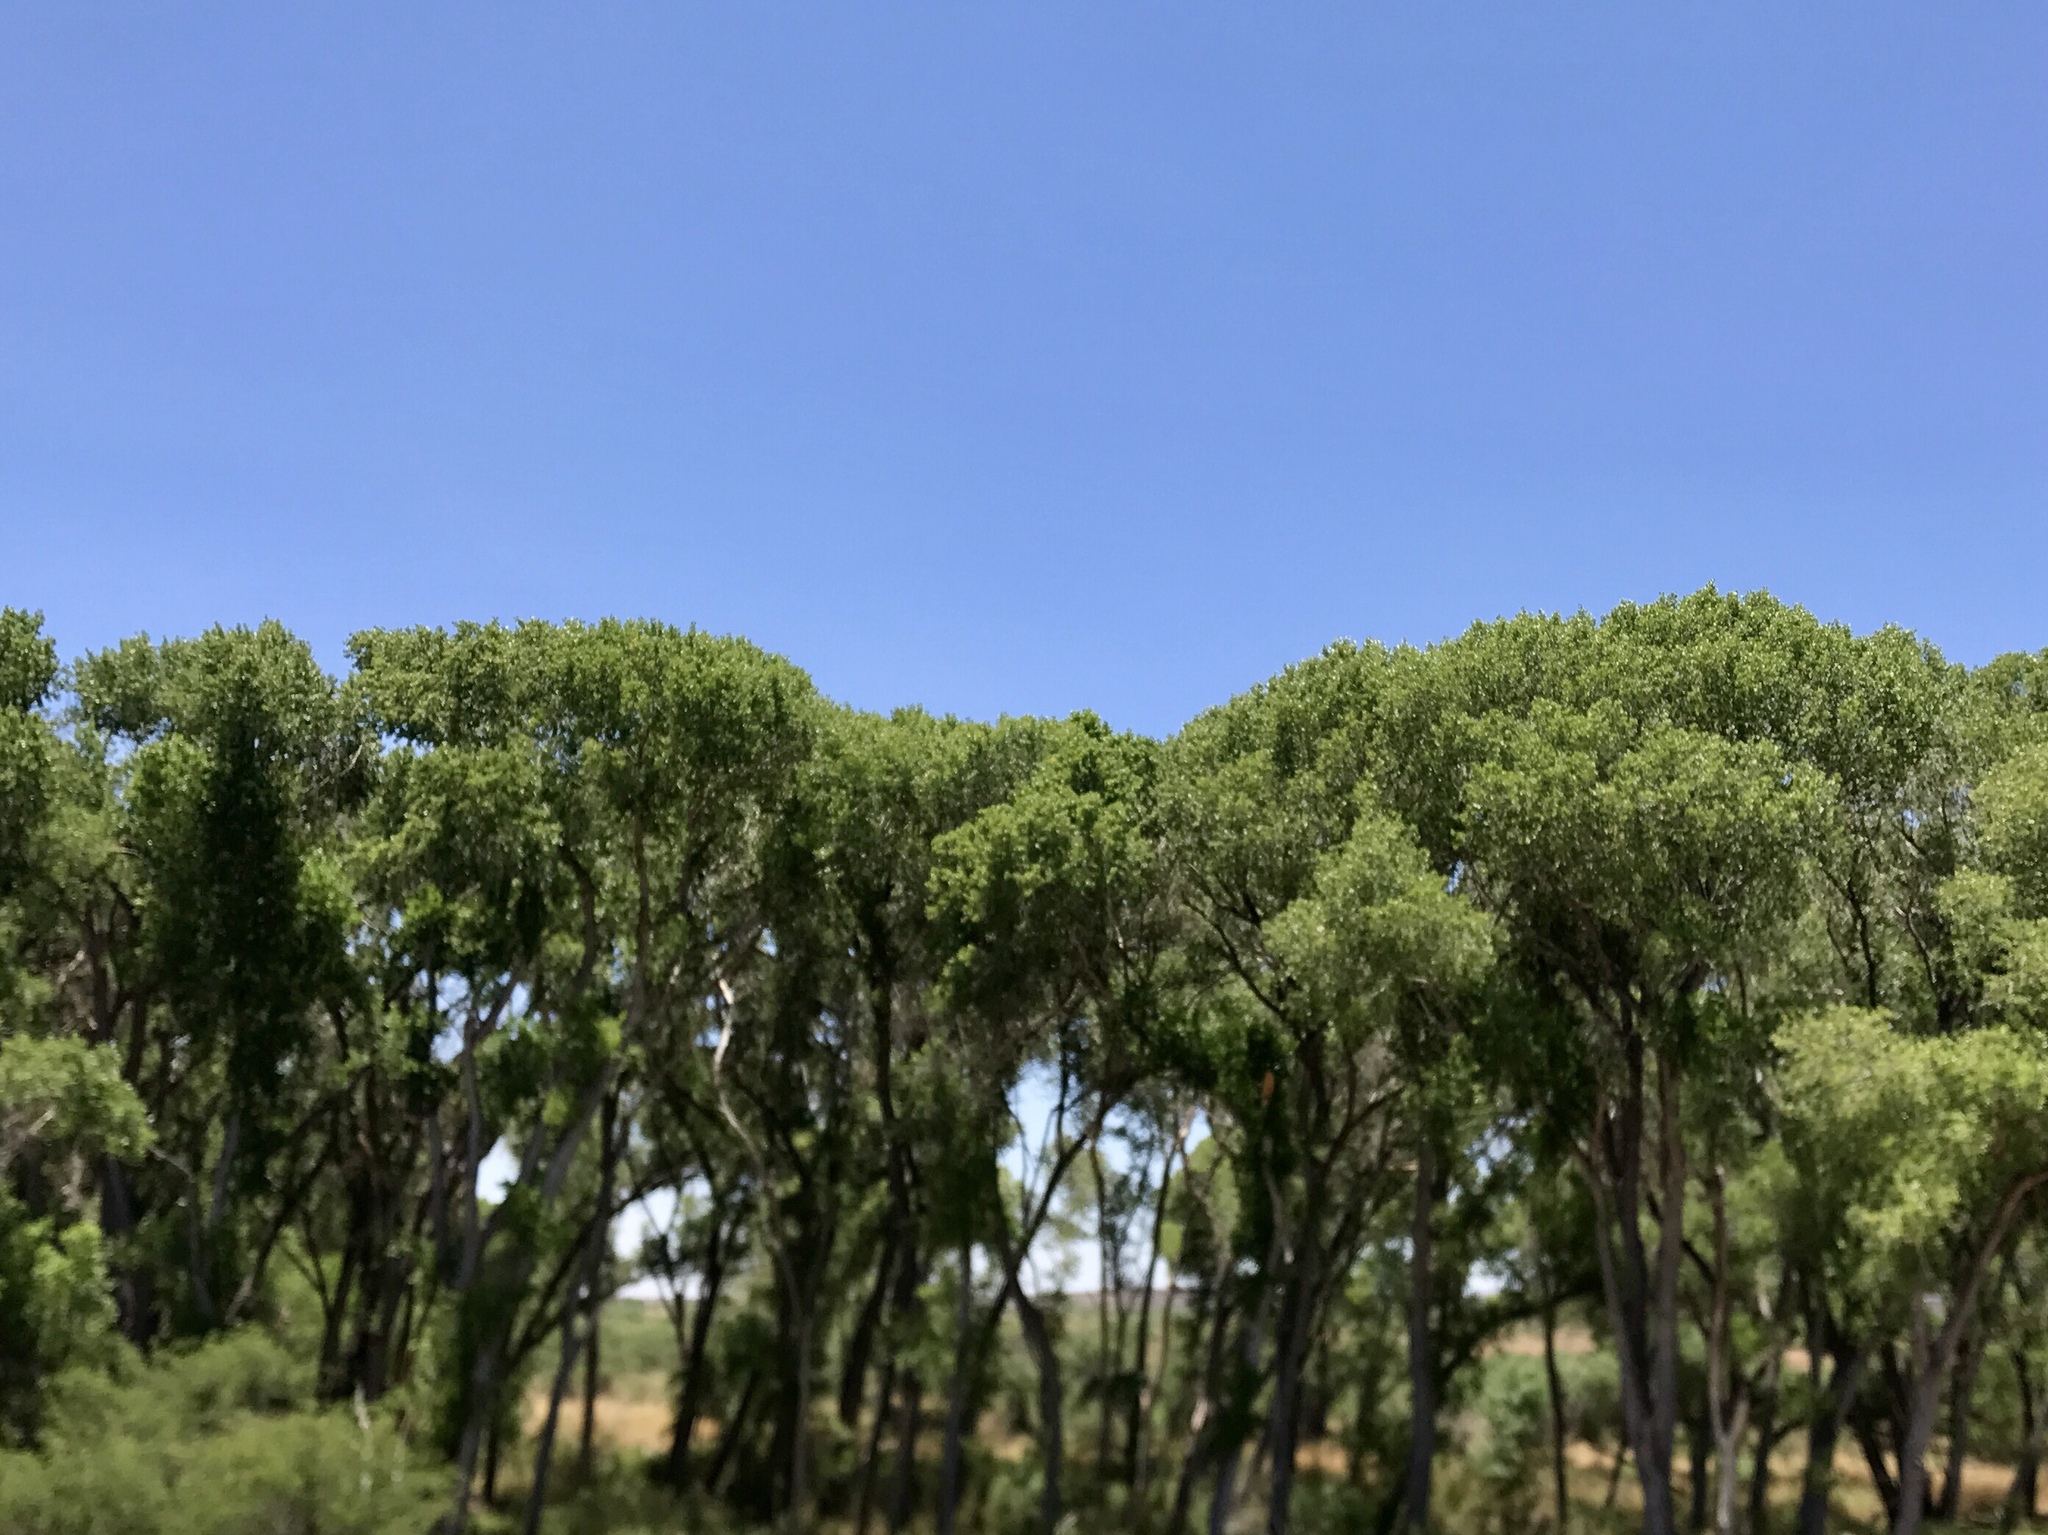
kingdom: Plantae
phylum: Tracheophyta
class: Magnoliopsida
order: Malpighiales
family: Salicaceae
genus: Populus
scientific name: Populus fremontii
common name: Fremont's cottonwood
